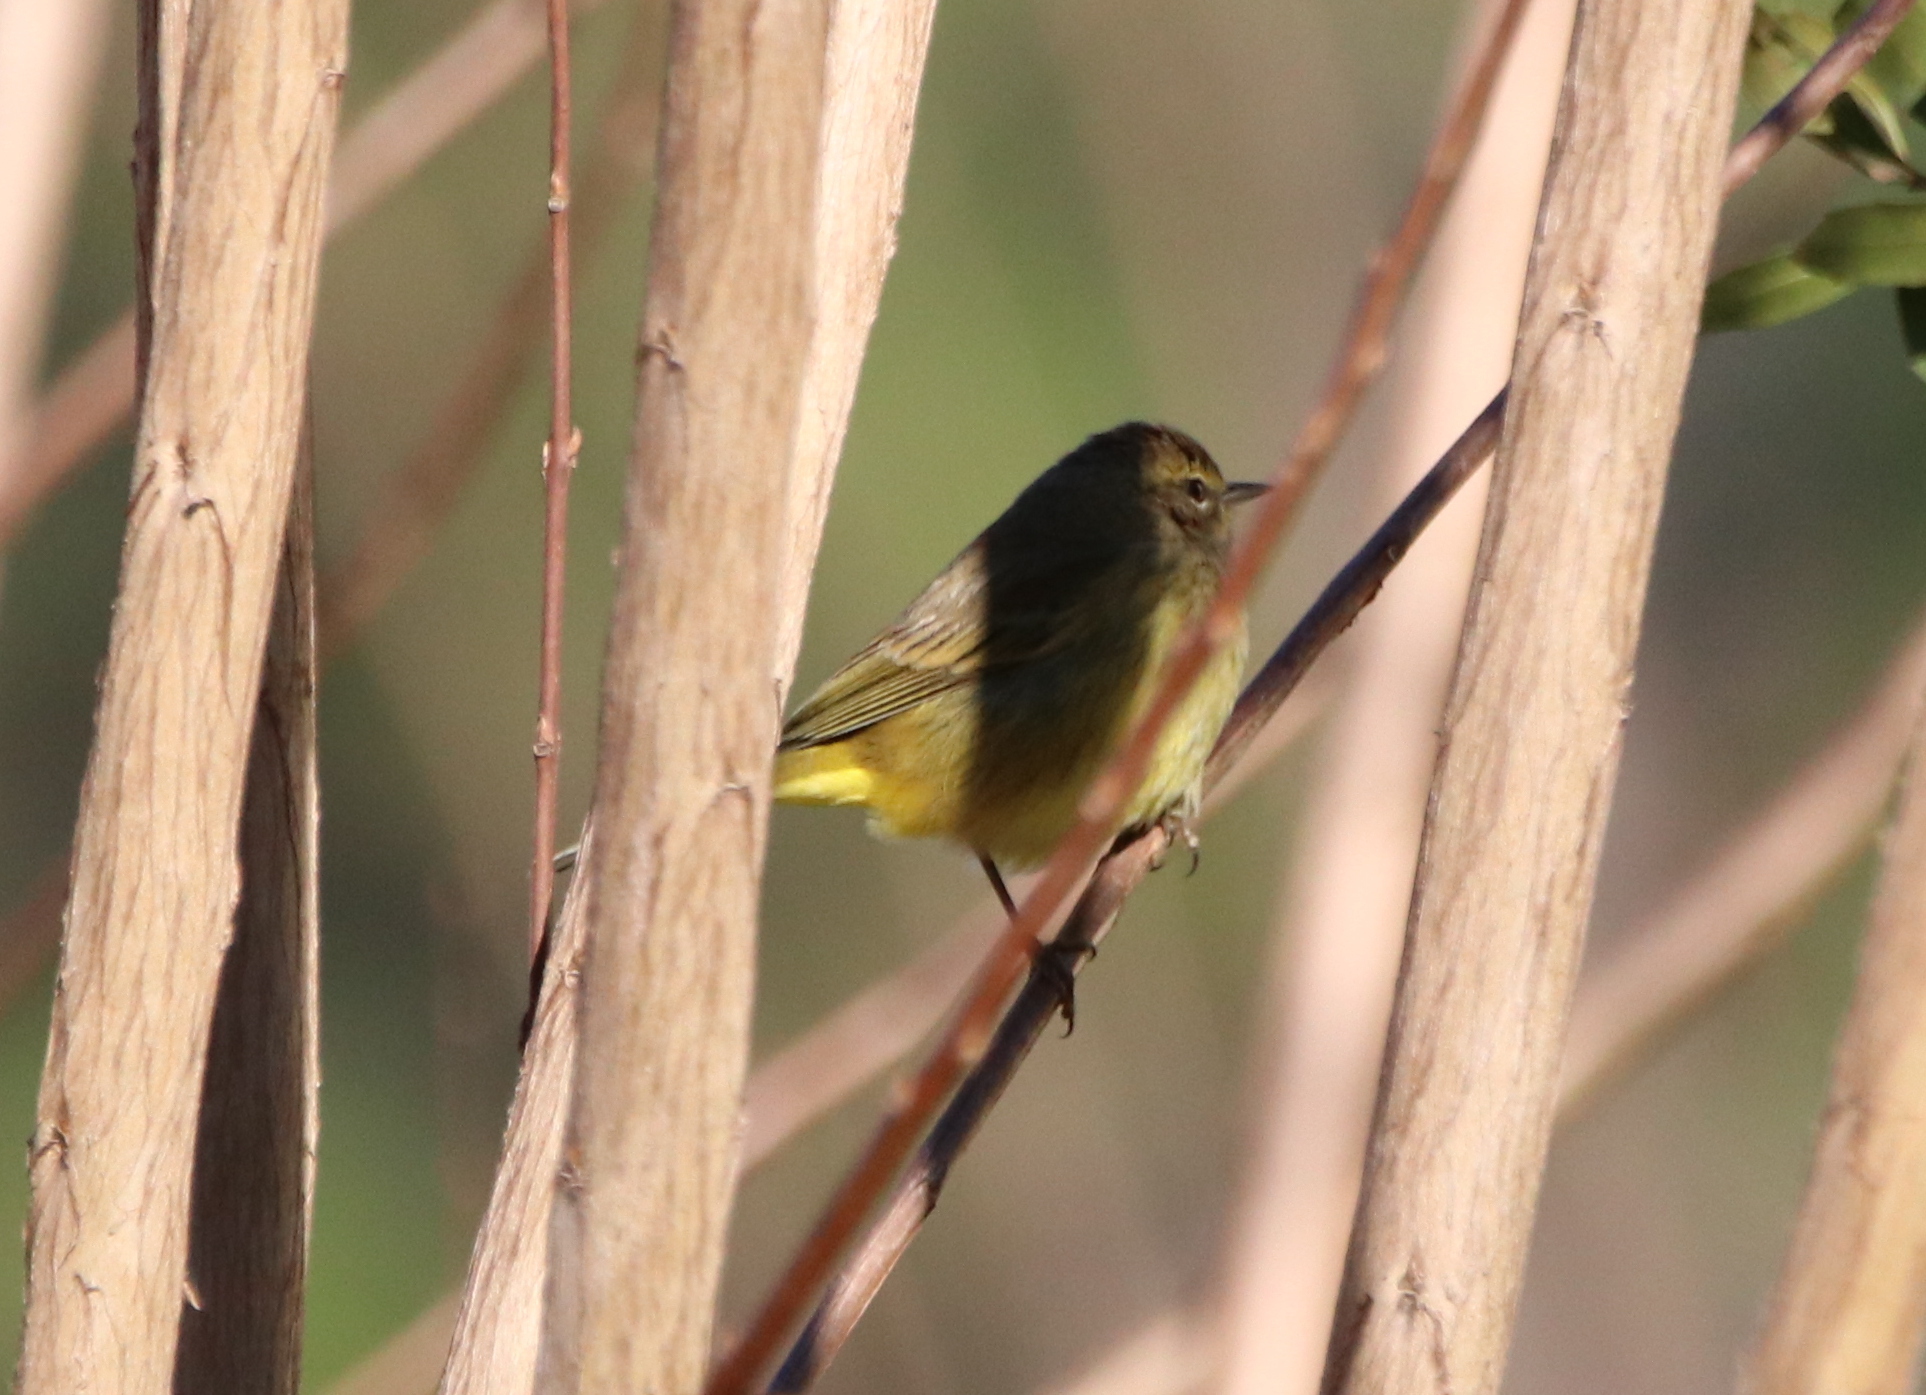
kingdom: Animalia
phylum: Chordata
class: Aves
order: Passeriformes
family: Parulidae
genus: Setophaga
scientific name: Setophaga palmarum
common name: Palm warbler
